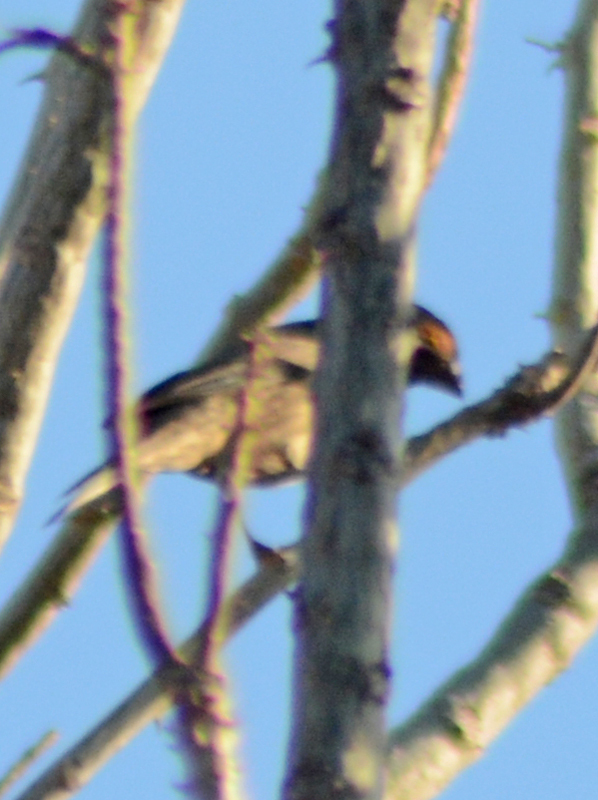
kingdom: Animalia
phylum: Chordata
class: Aves
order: Passeriformes
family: Fringillidae
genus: Haemorhous
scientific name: Haemorhous mexicanus
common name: House finch
